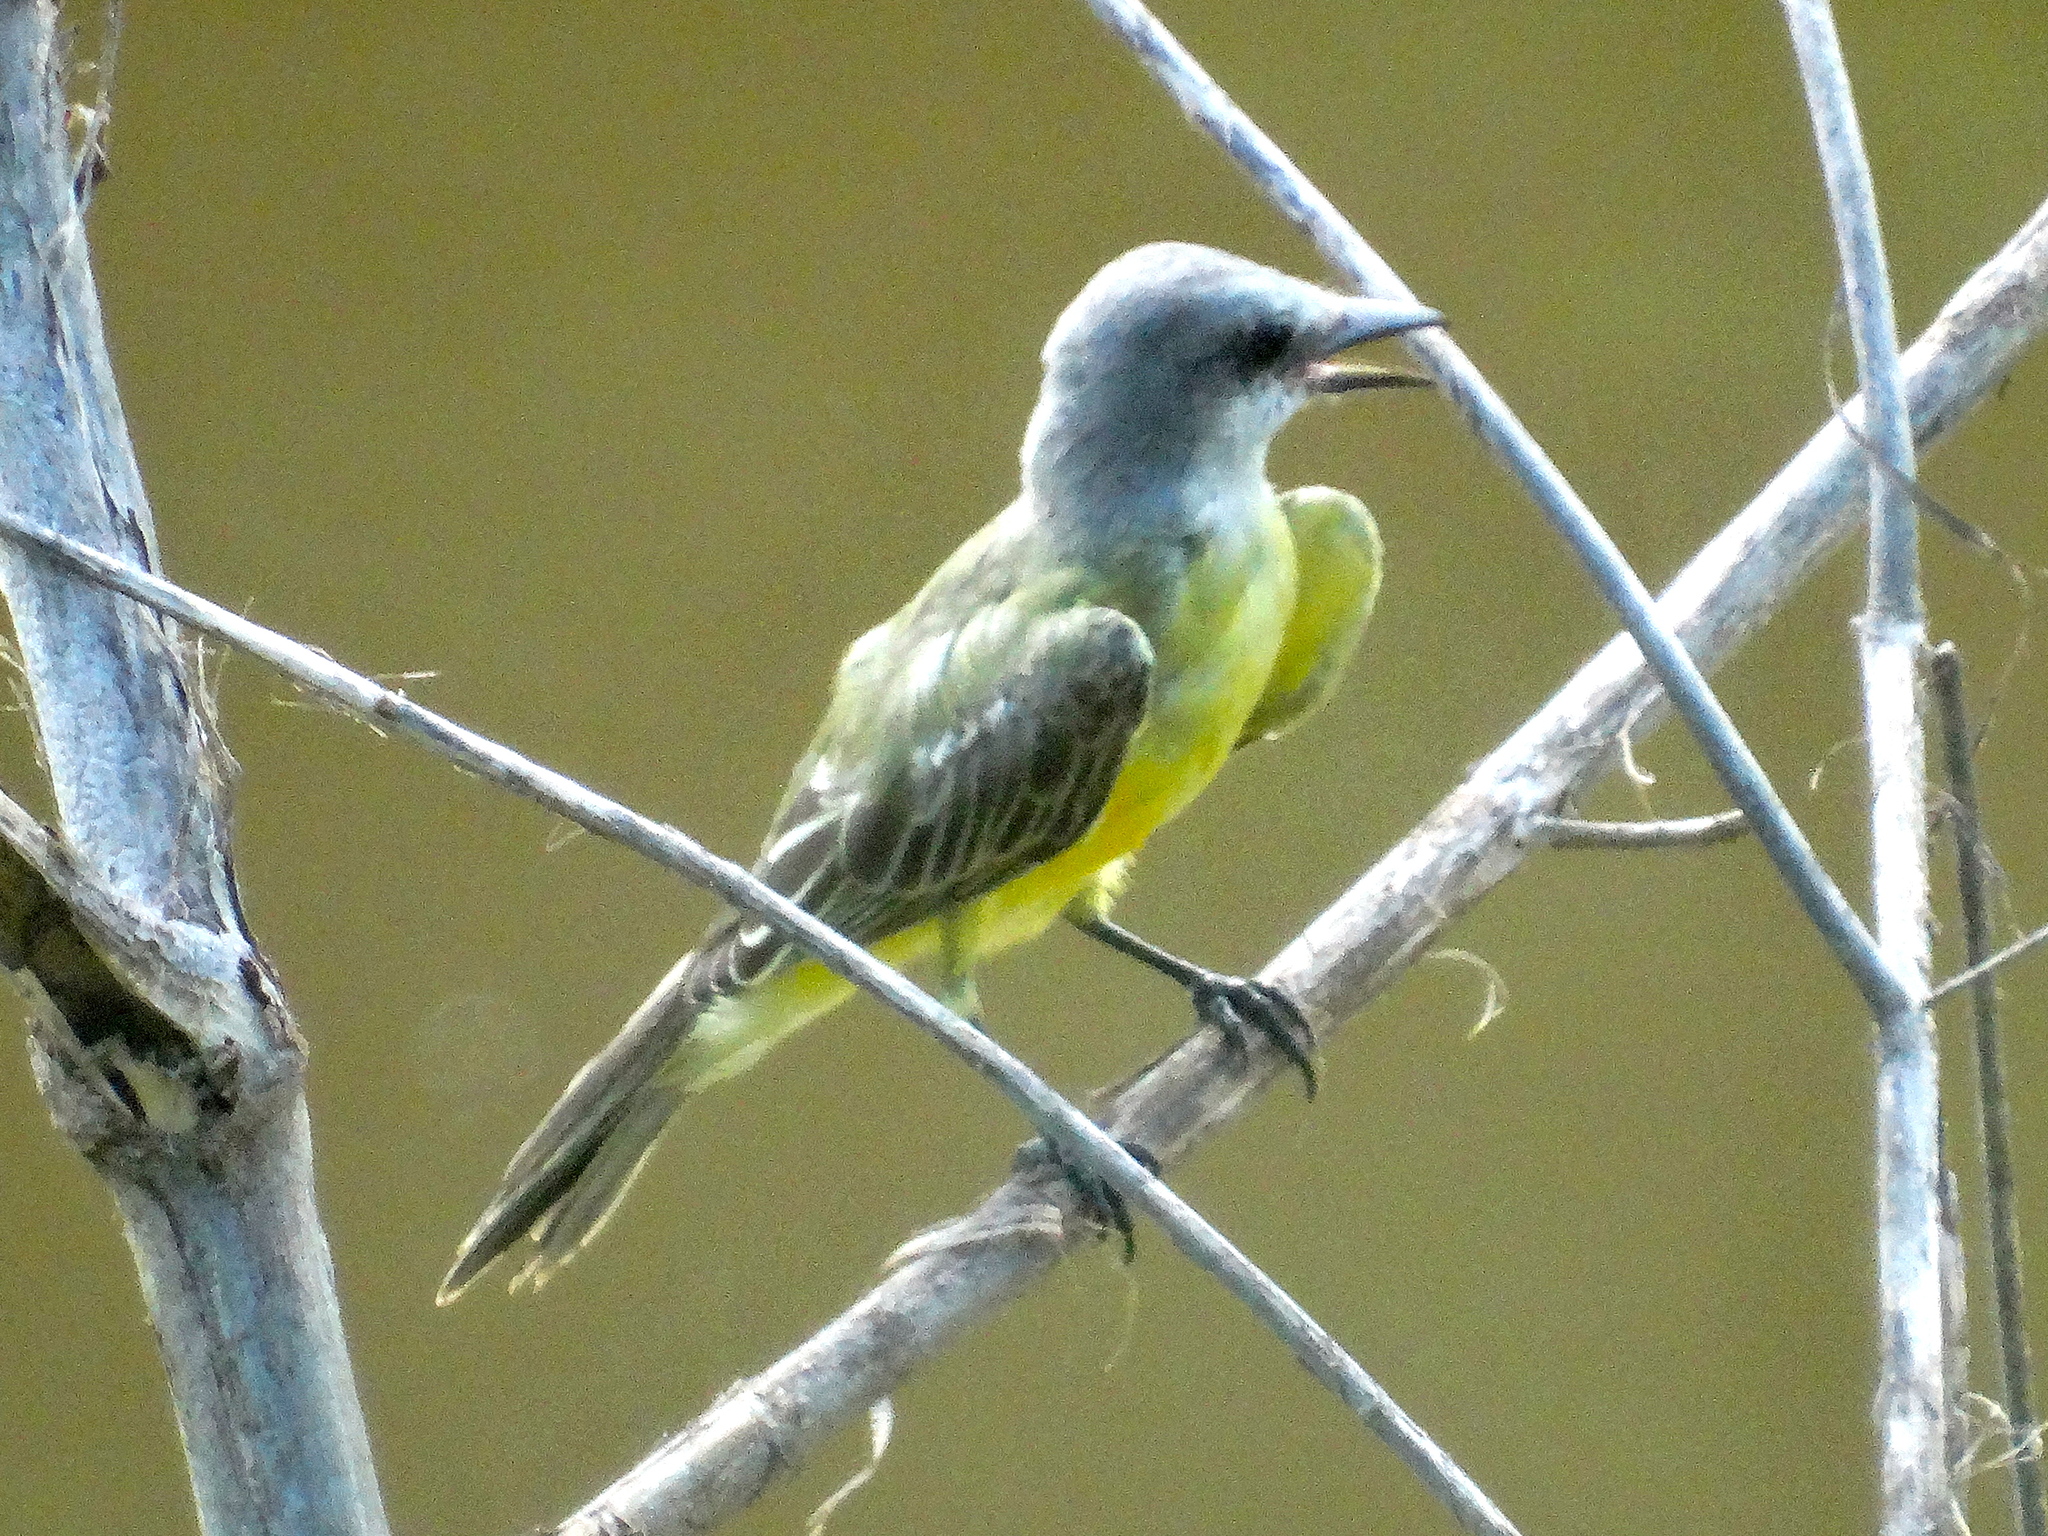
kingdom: Animalia
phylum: Chordata
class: Aves
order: Passeriformes
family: Tyrannidae
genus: Tyrannus
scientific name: Tyrannus melancholicus
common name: Tropical kingbird
